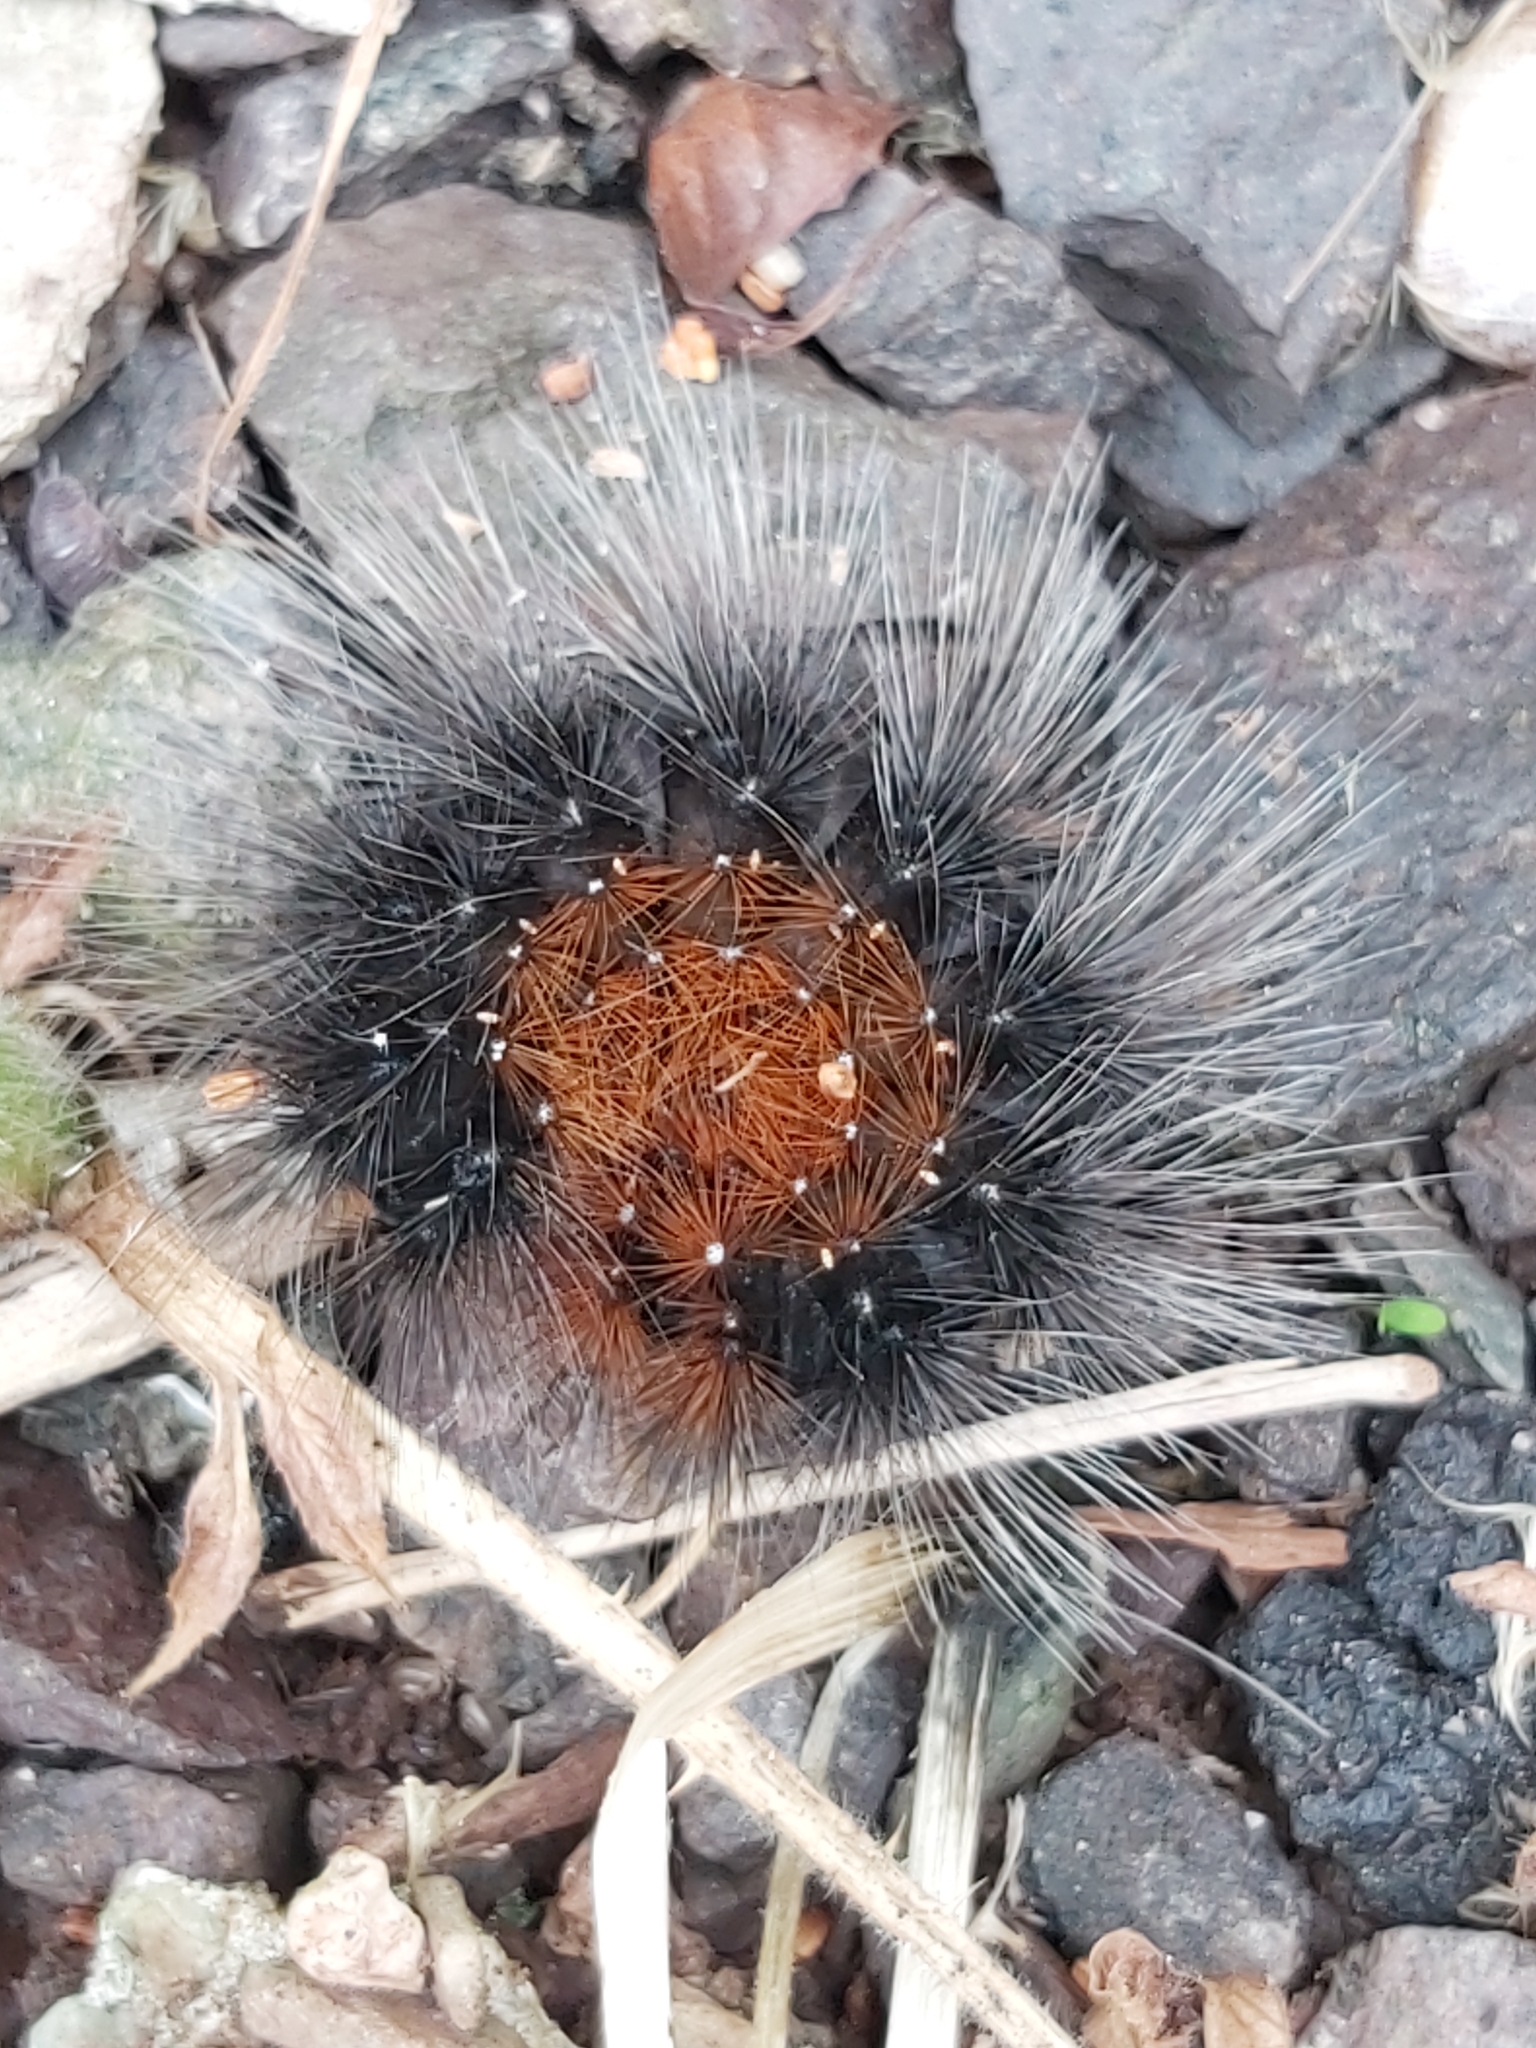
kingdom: Animalia
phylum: Arthropoda
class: Insecta
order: Lepidoptera
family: Erebidae
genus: Arctia
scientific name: Arctia caja
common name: Garden tiger
